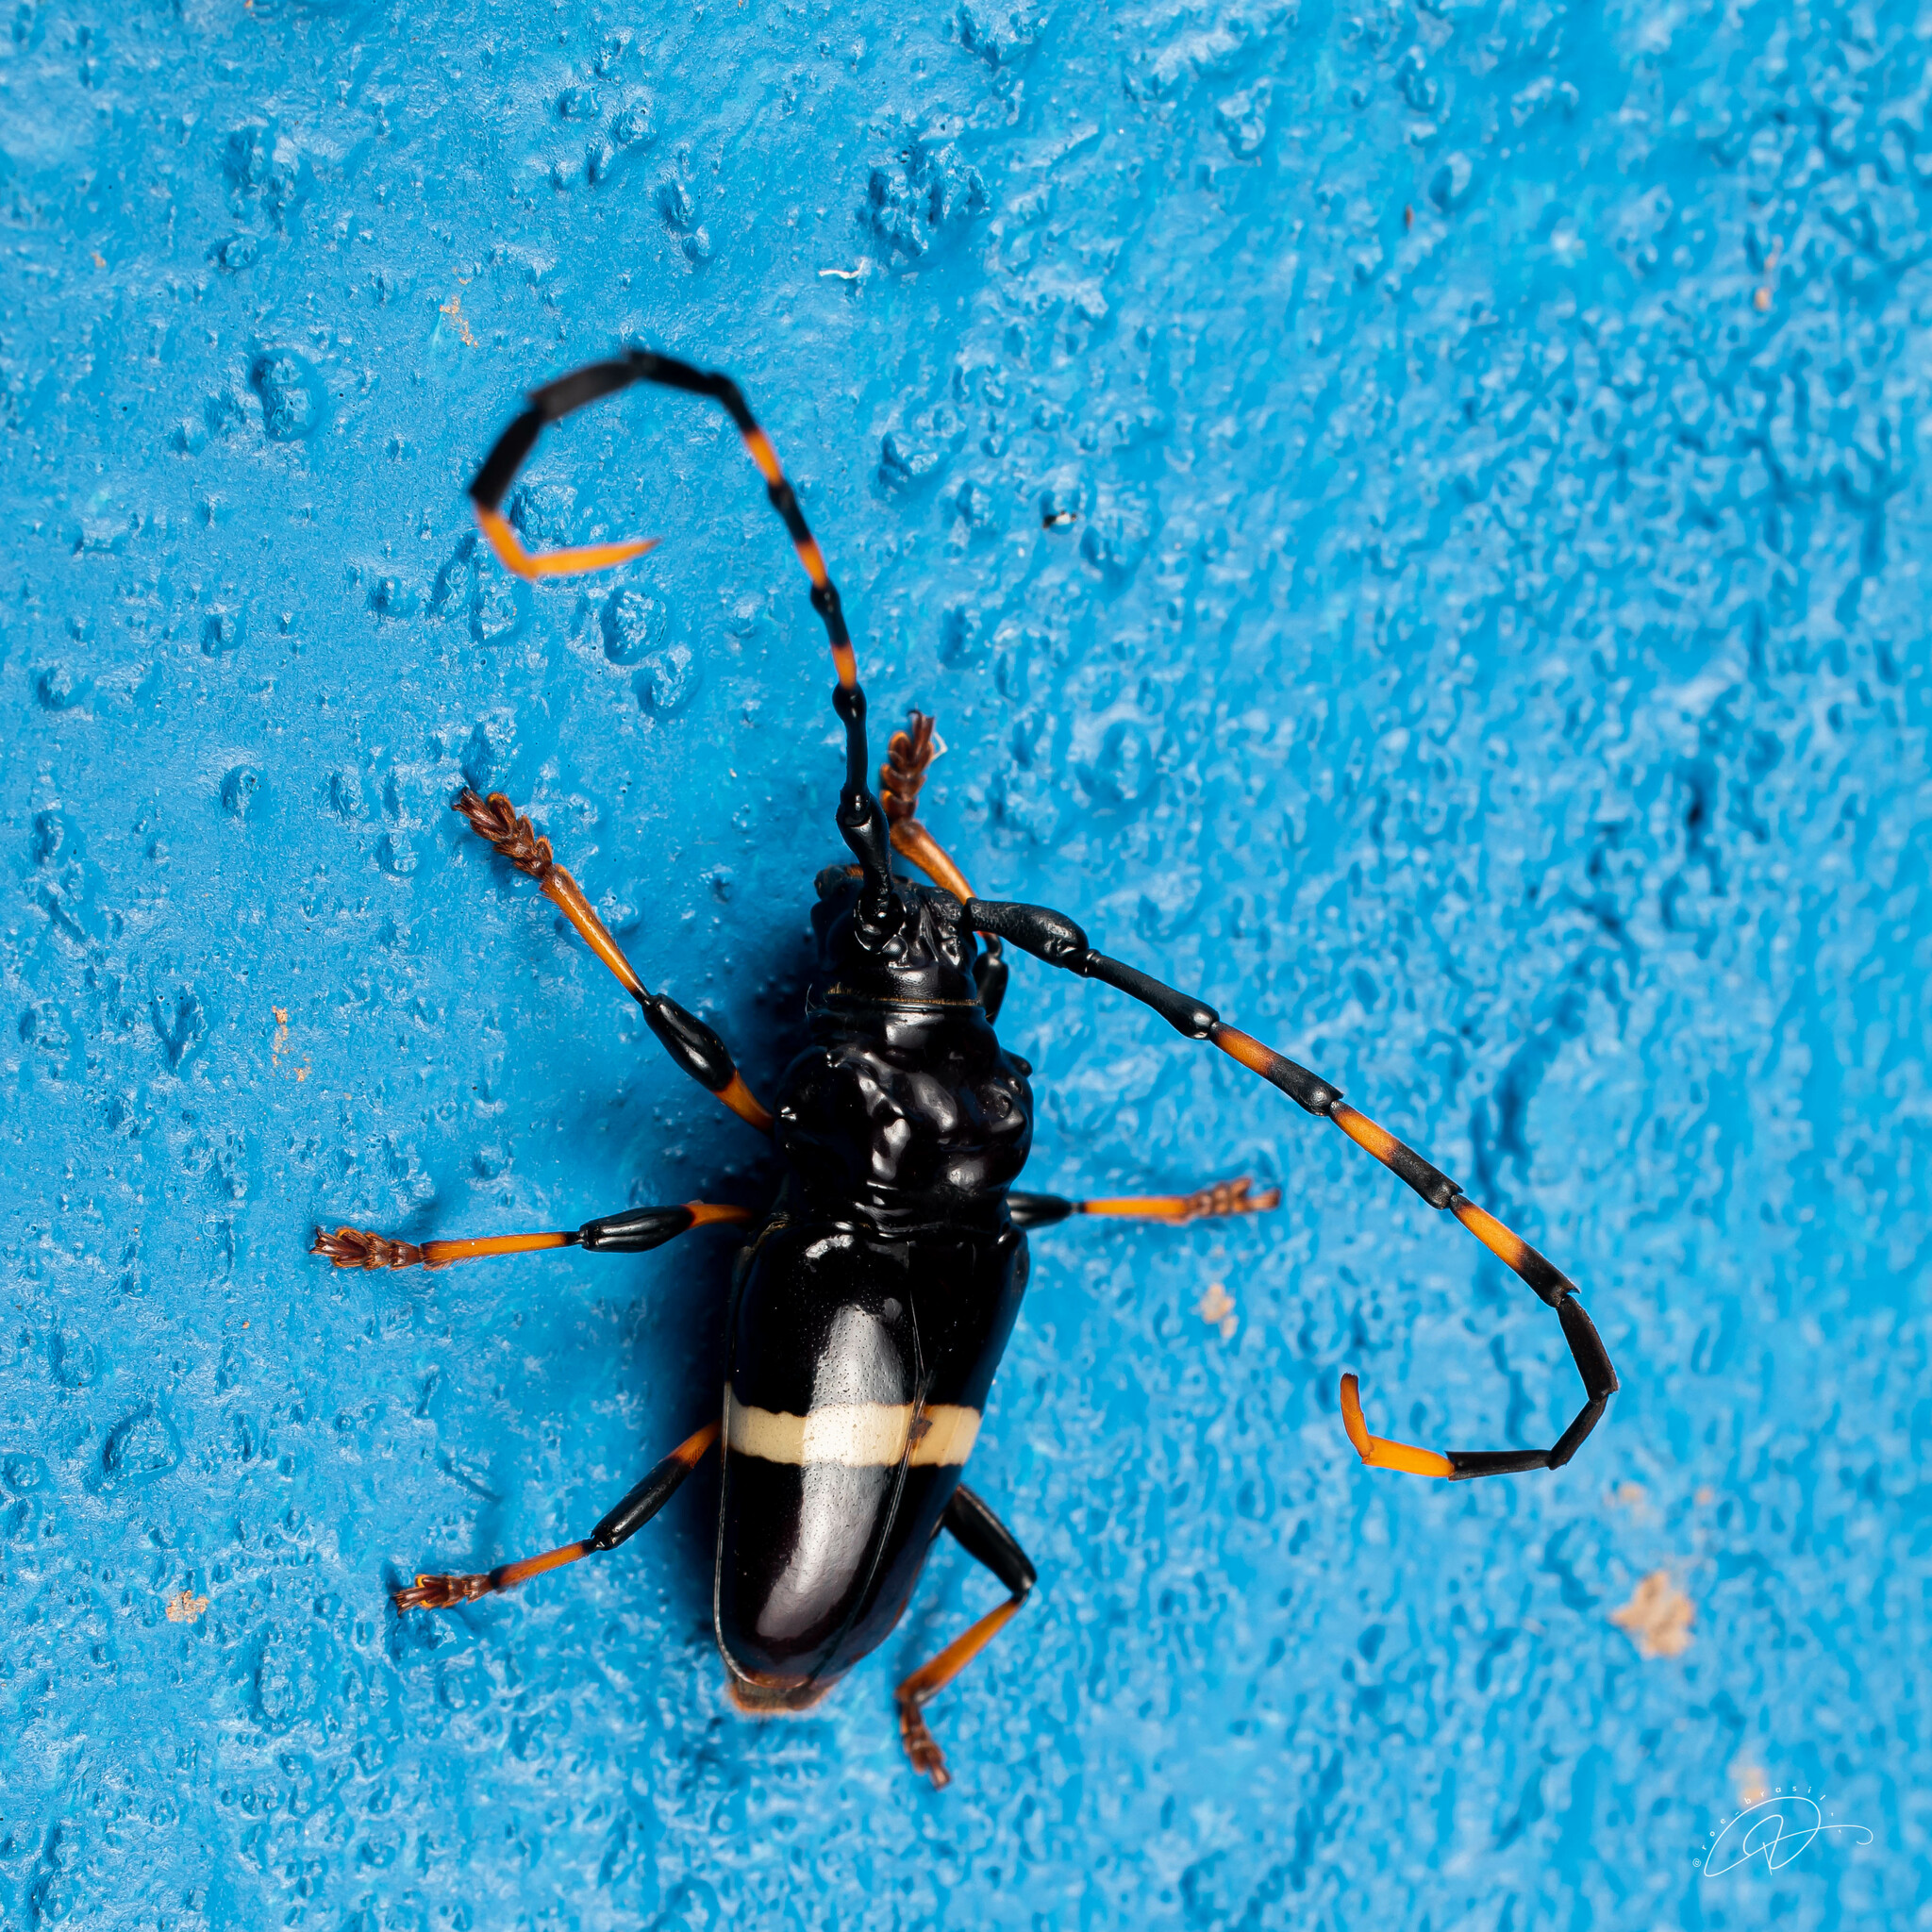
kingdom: Animalia
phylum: Arthropoda
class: Insecta
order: Coleoptera
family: Cerambycidae
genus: Trachyderes
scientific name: Trachyderes succinctus
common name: Mango longhorn
